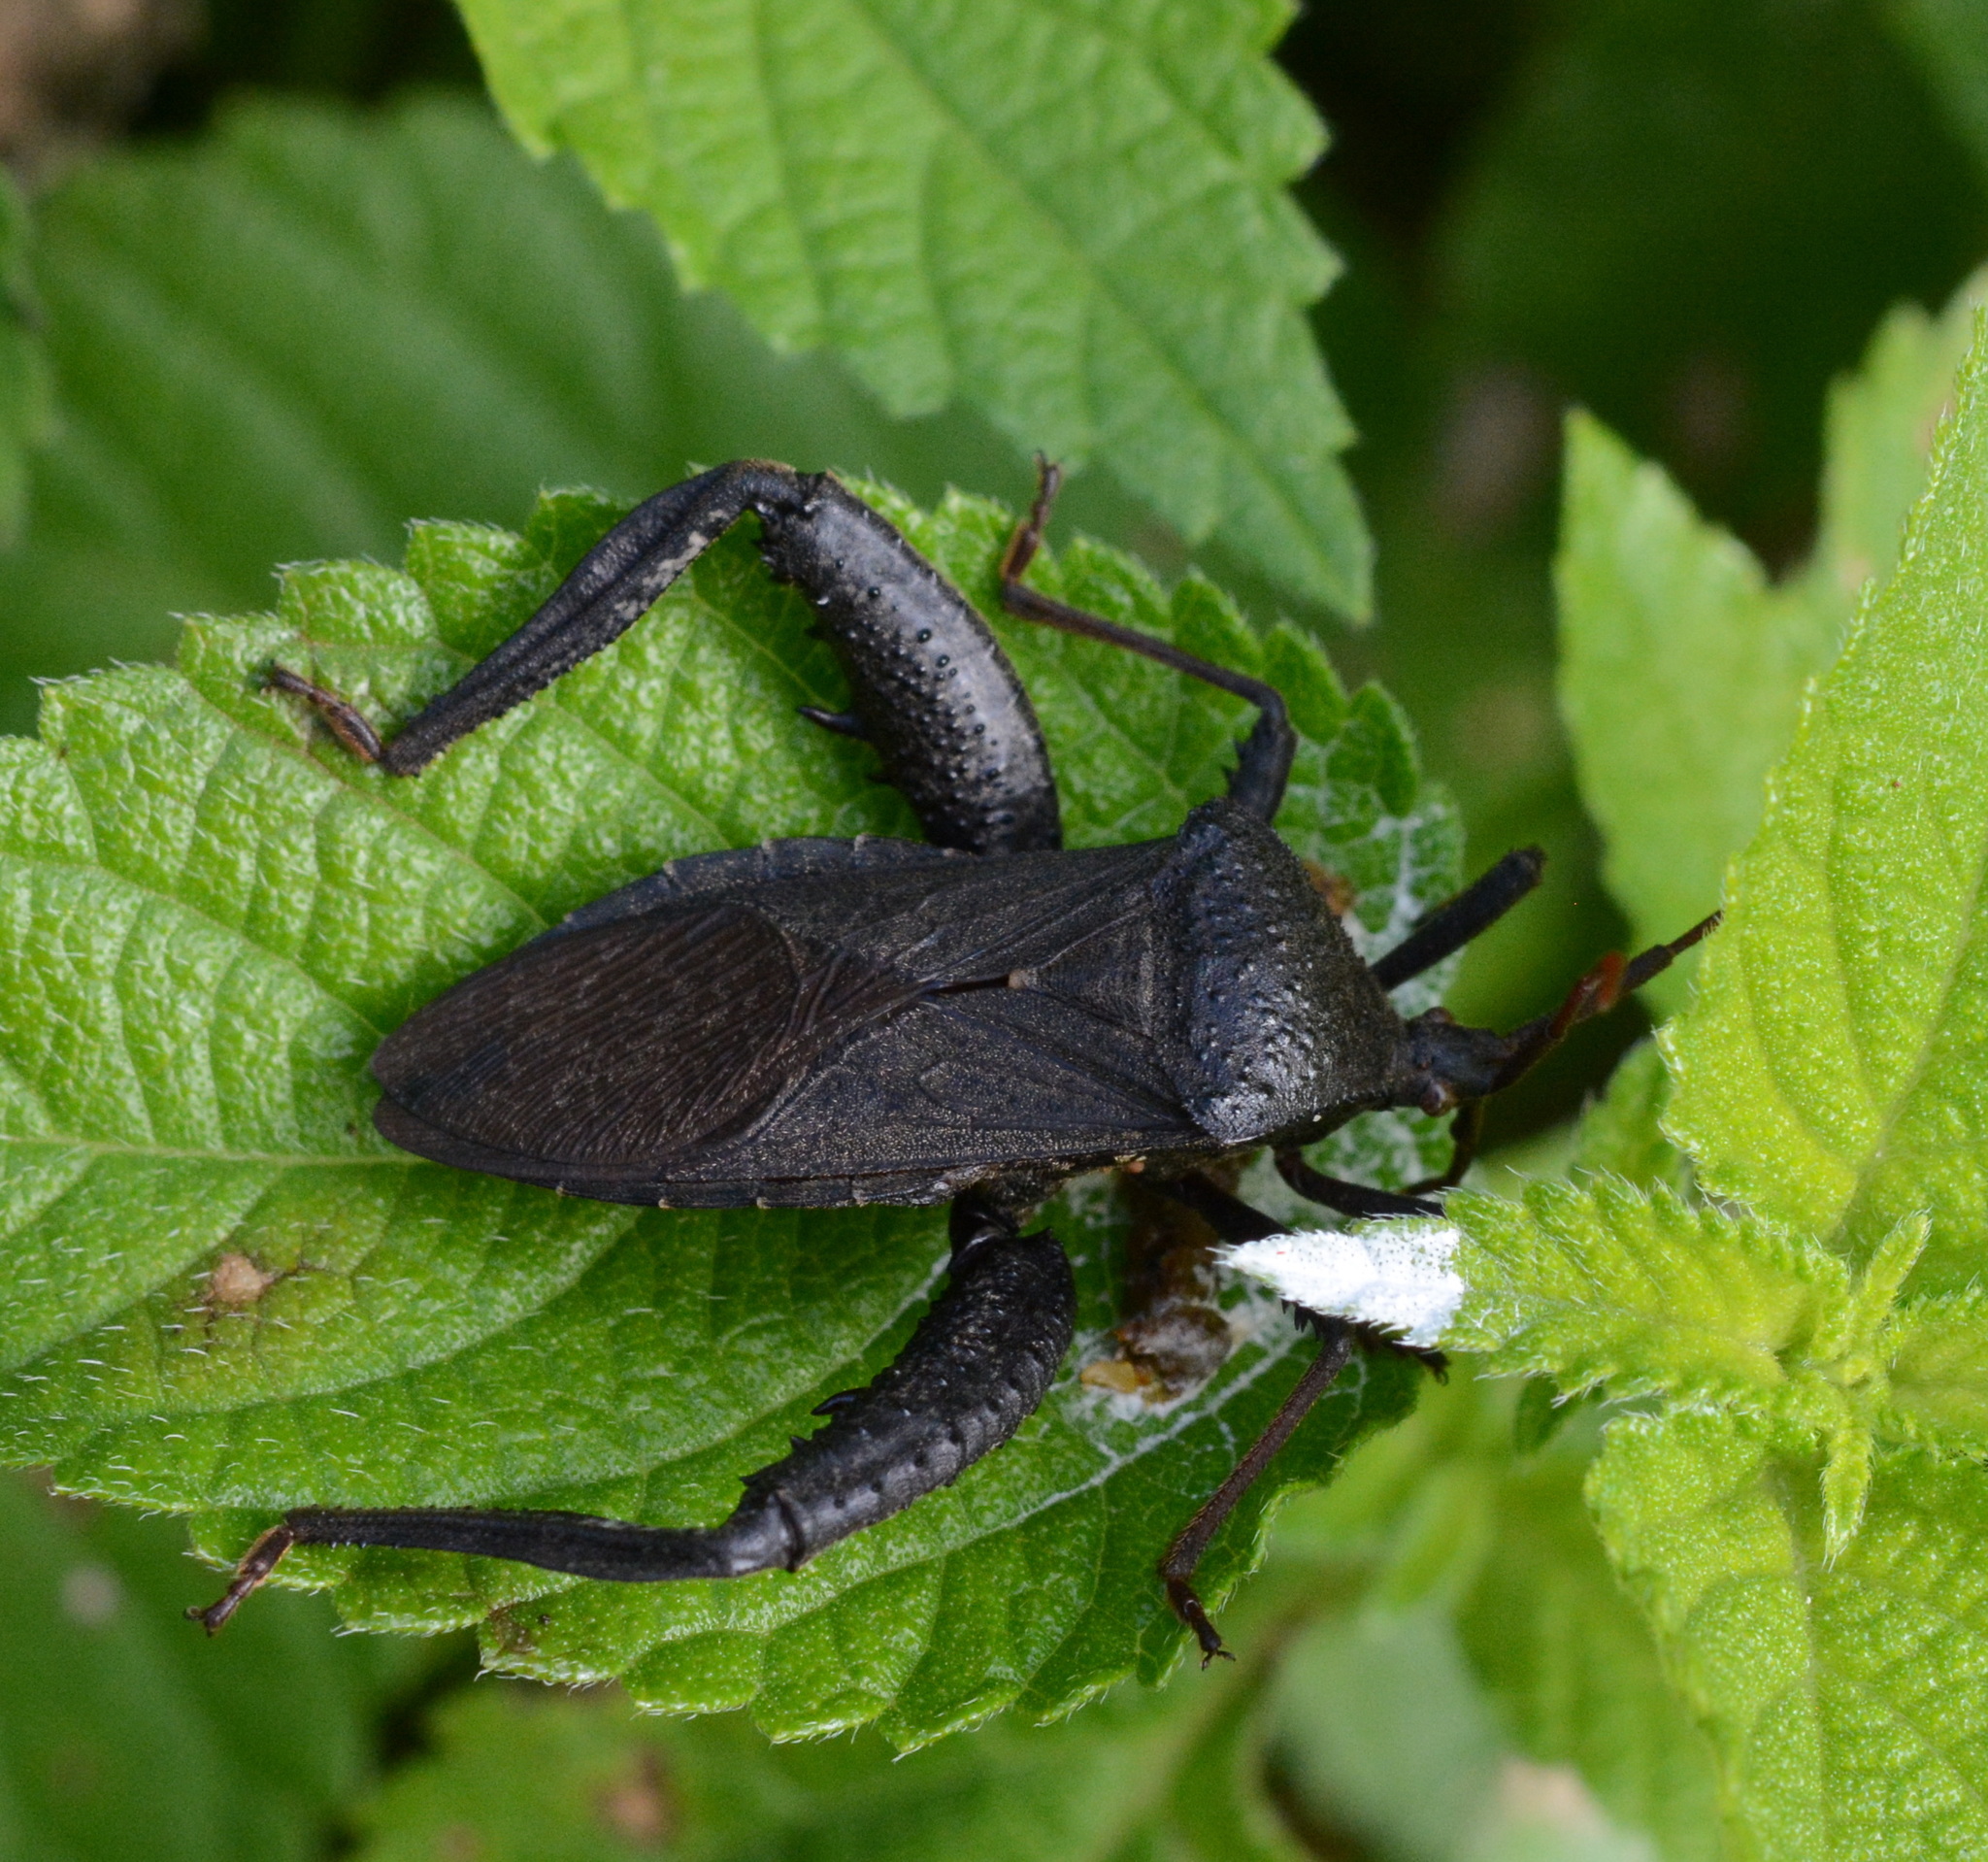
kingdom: Animalia
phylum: Arthropoda
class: Insecta
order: Hemiptera
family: Coreidae
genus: Acanthocephala
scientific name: Acanthocephala femorata
